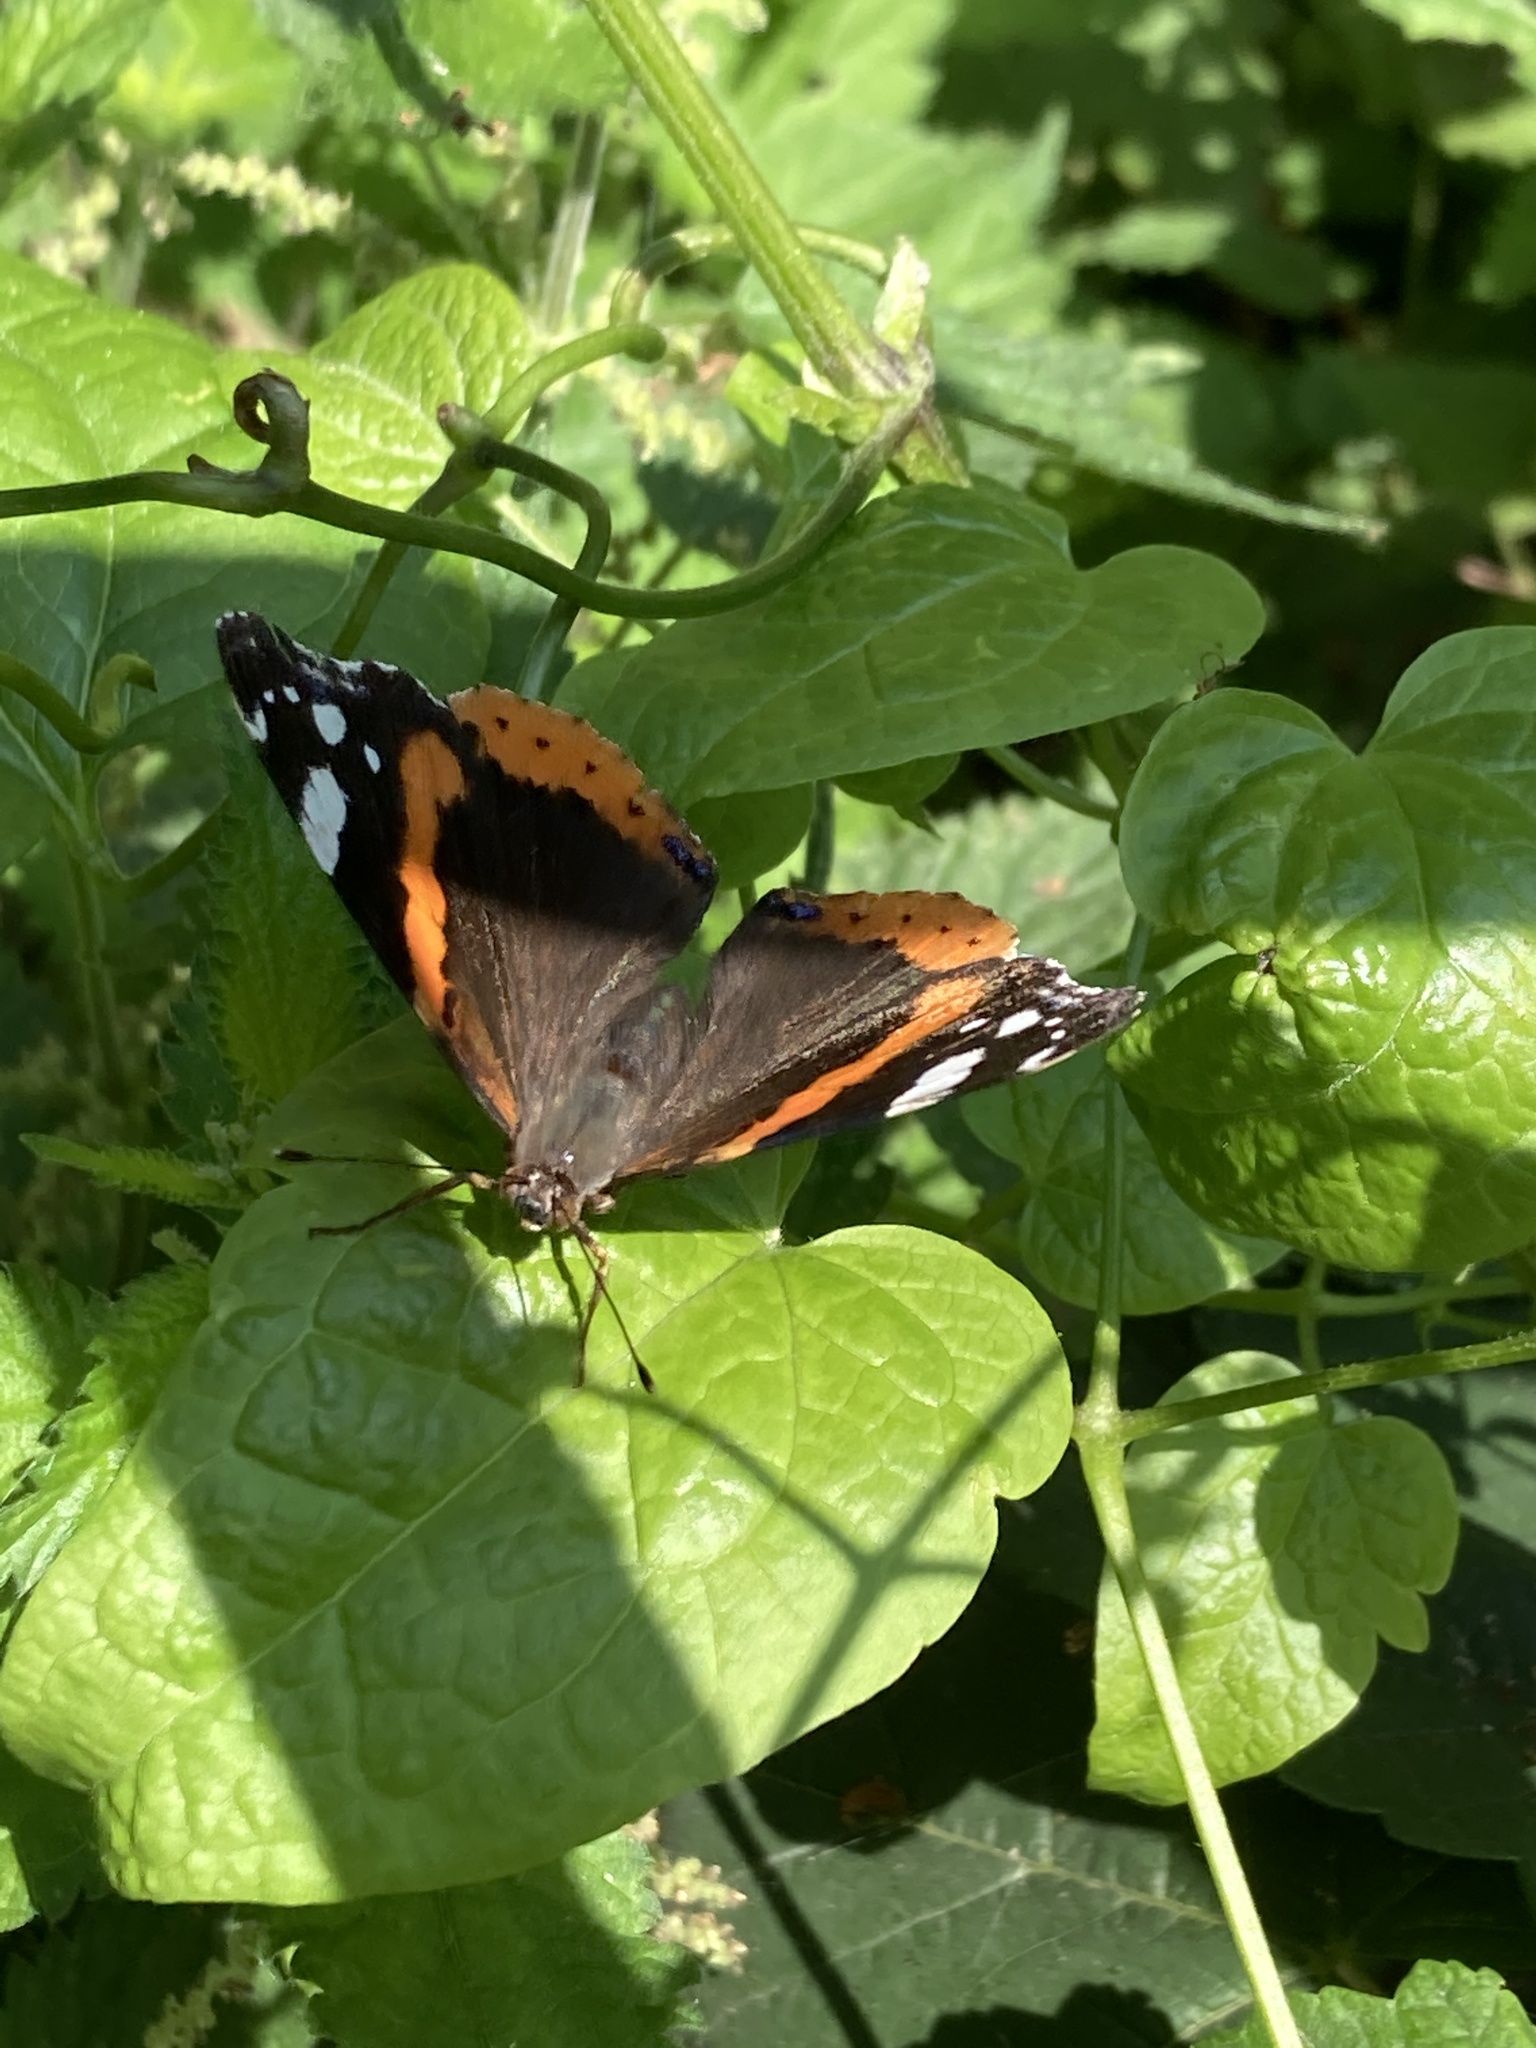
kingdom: Animalia
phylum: Arthropoda
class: Insecta
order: Lepidoptera
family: Nymphalidae
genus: Vanessa
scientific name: Vanessa atalanta
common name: Red admiral
